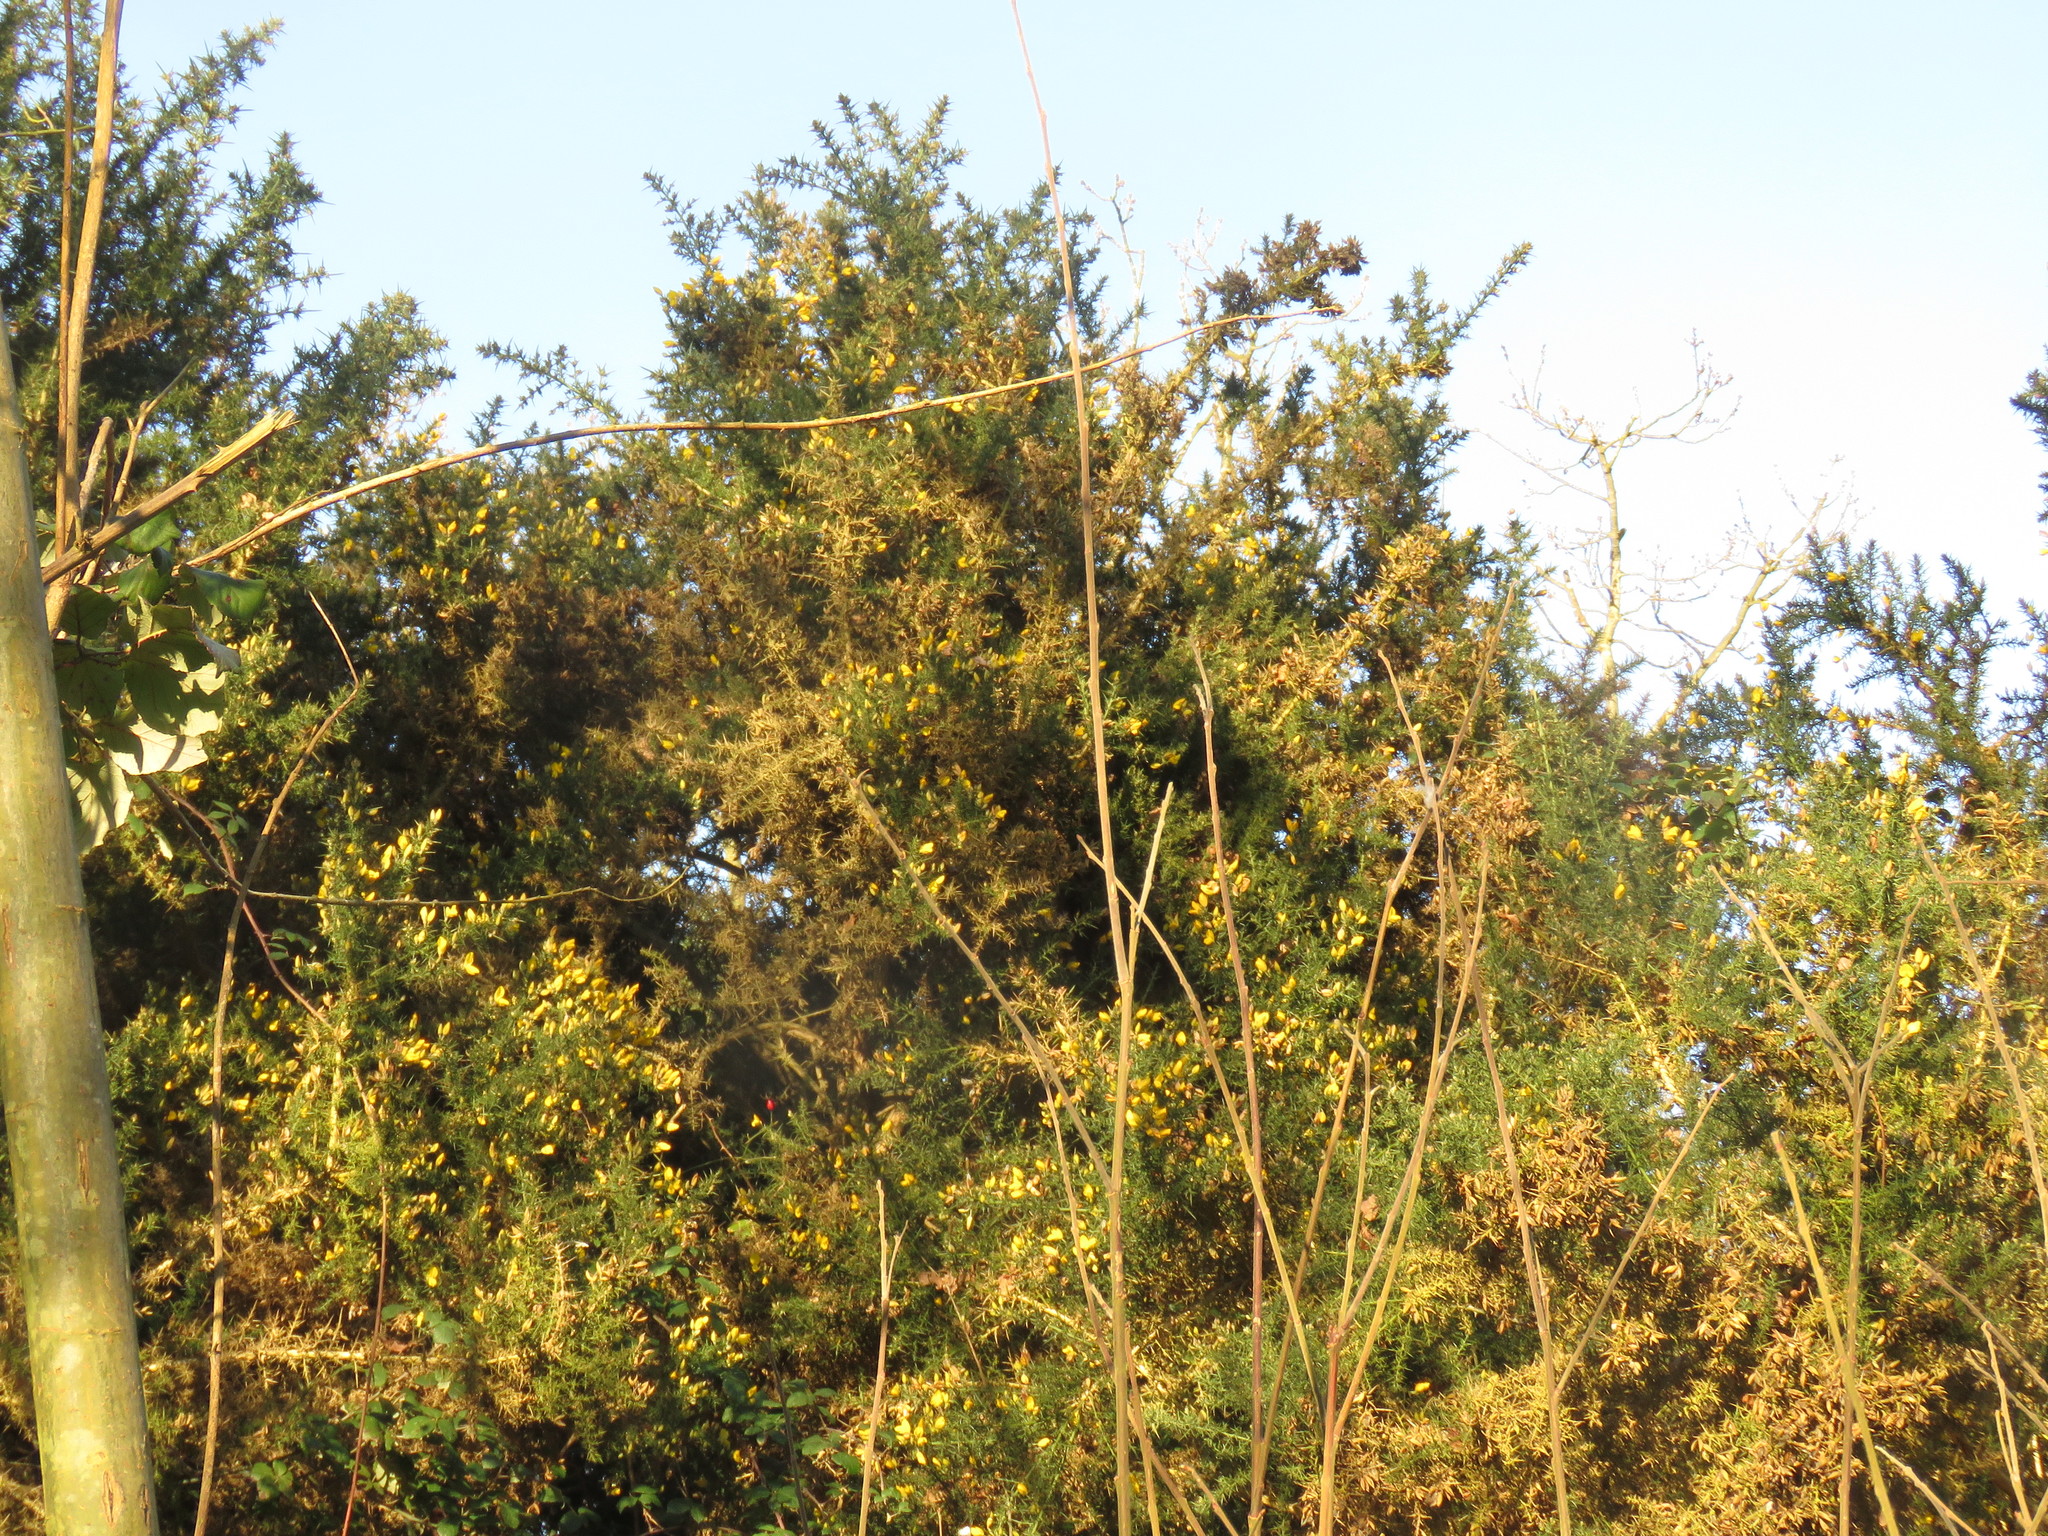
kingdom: Plantae
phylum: Tracheophyta
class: Magnoliopsida
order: Fabales
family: Fabaceae
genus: Ulex
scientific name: Ulex europaeus
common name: Common gorse
